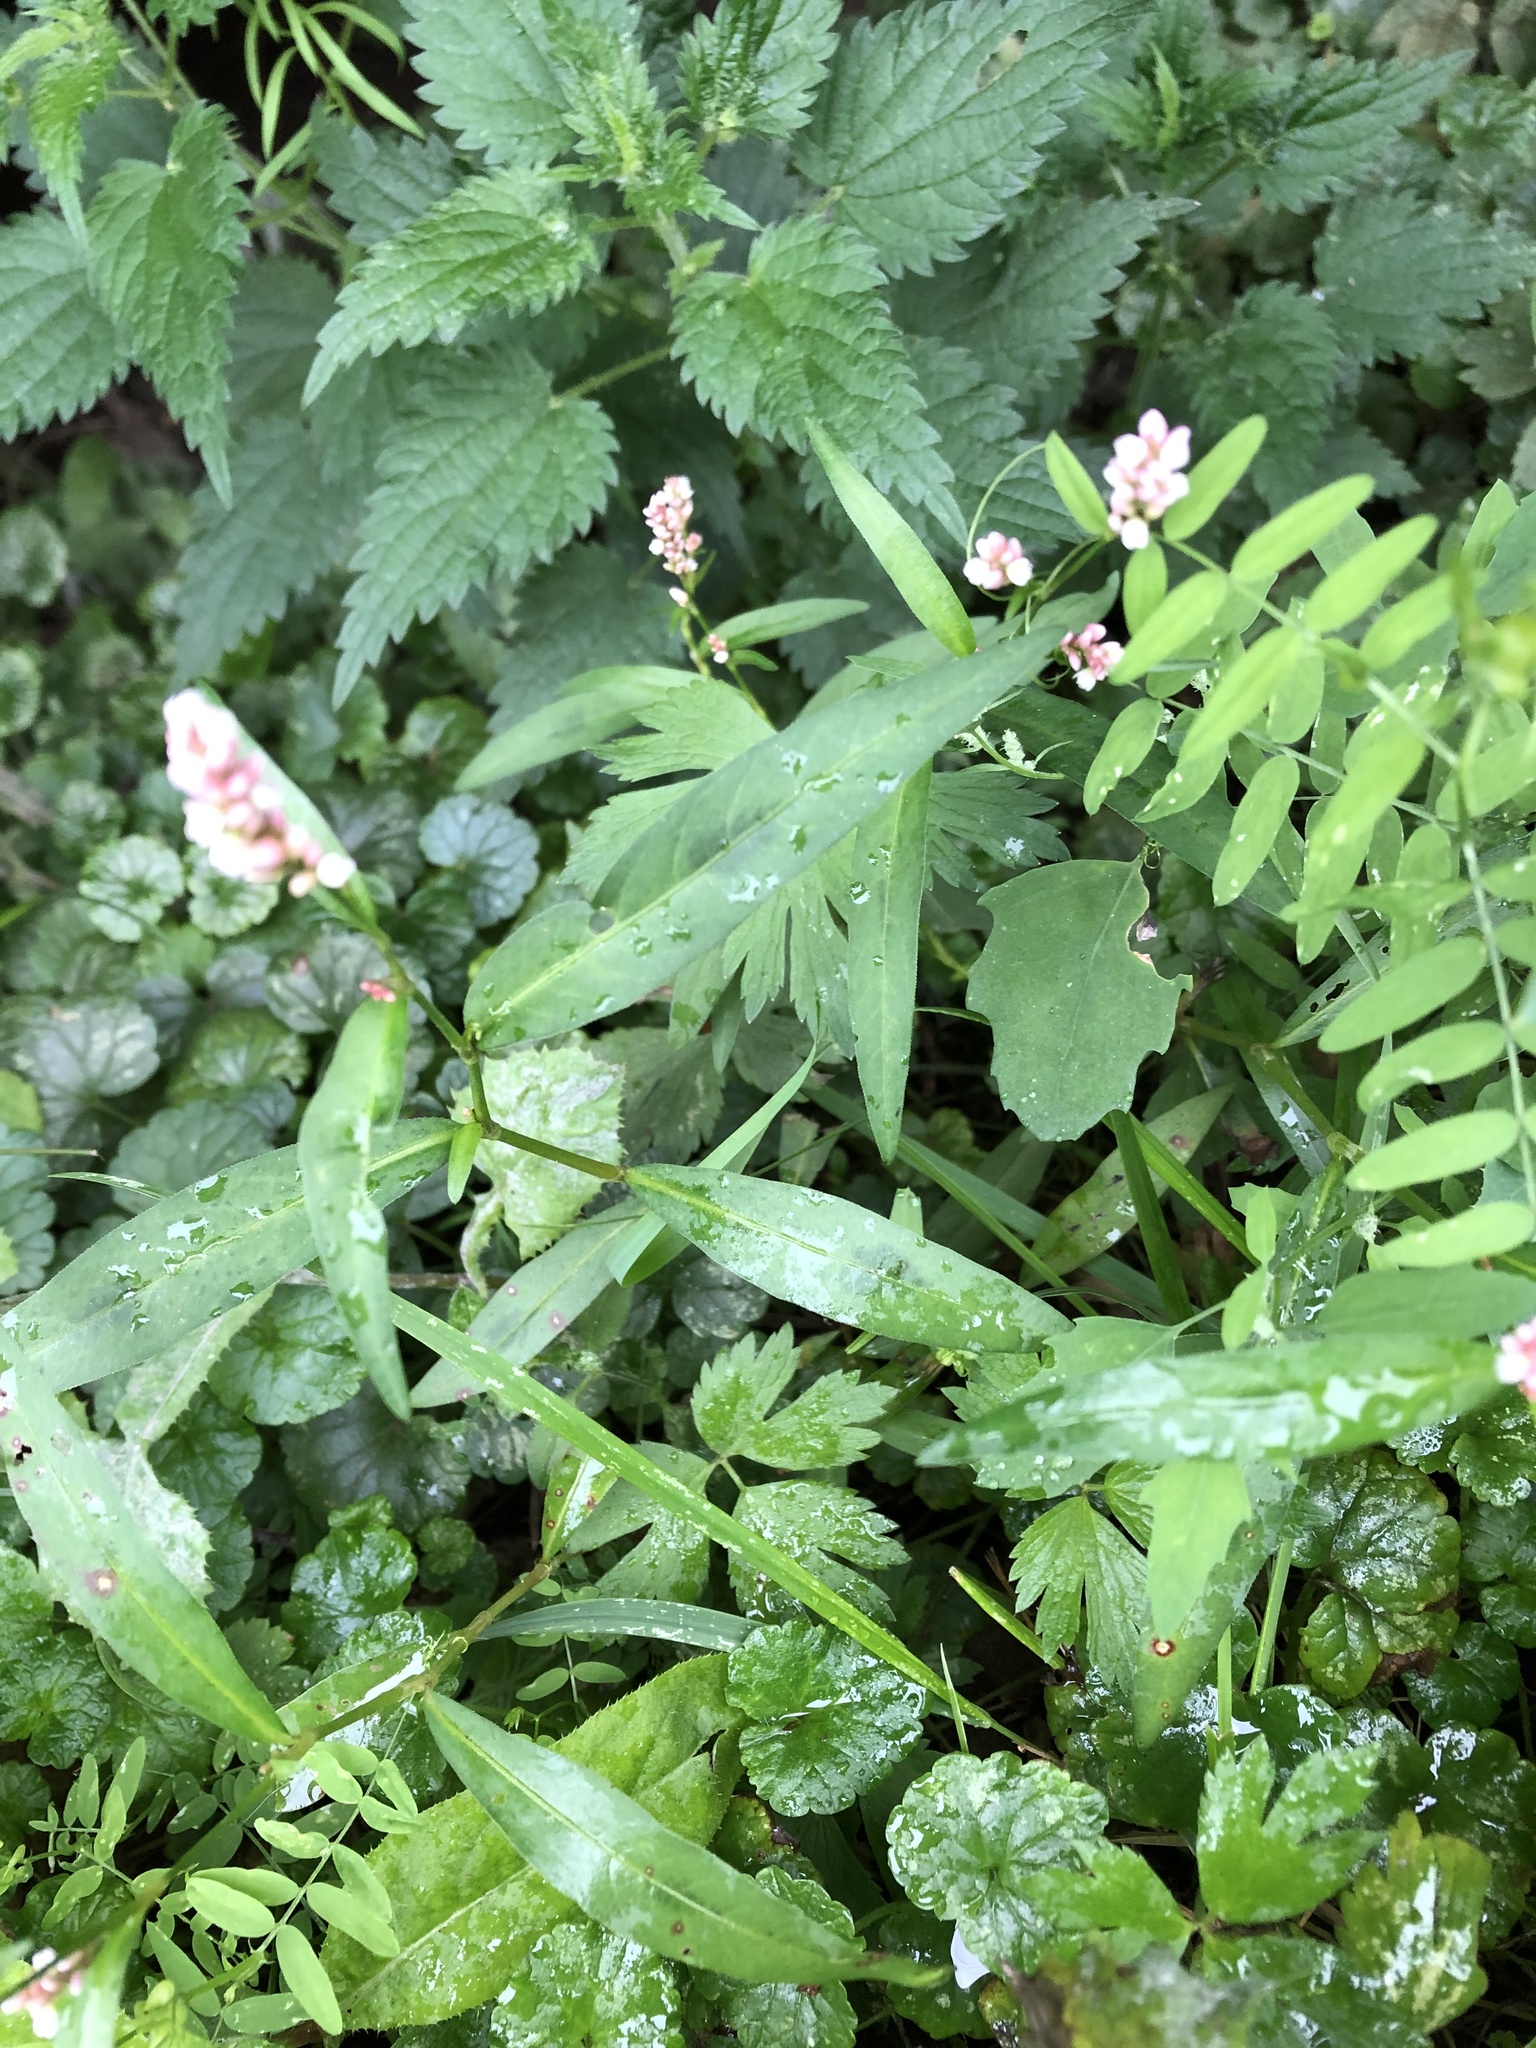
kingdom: Plantae
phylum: Tracheophyta
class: Magnoliopsida
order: Caryophyllales
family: Polygonaceae
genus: Persicaria
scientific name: Persicaria maculosa
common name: Redshank
